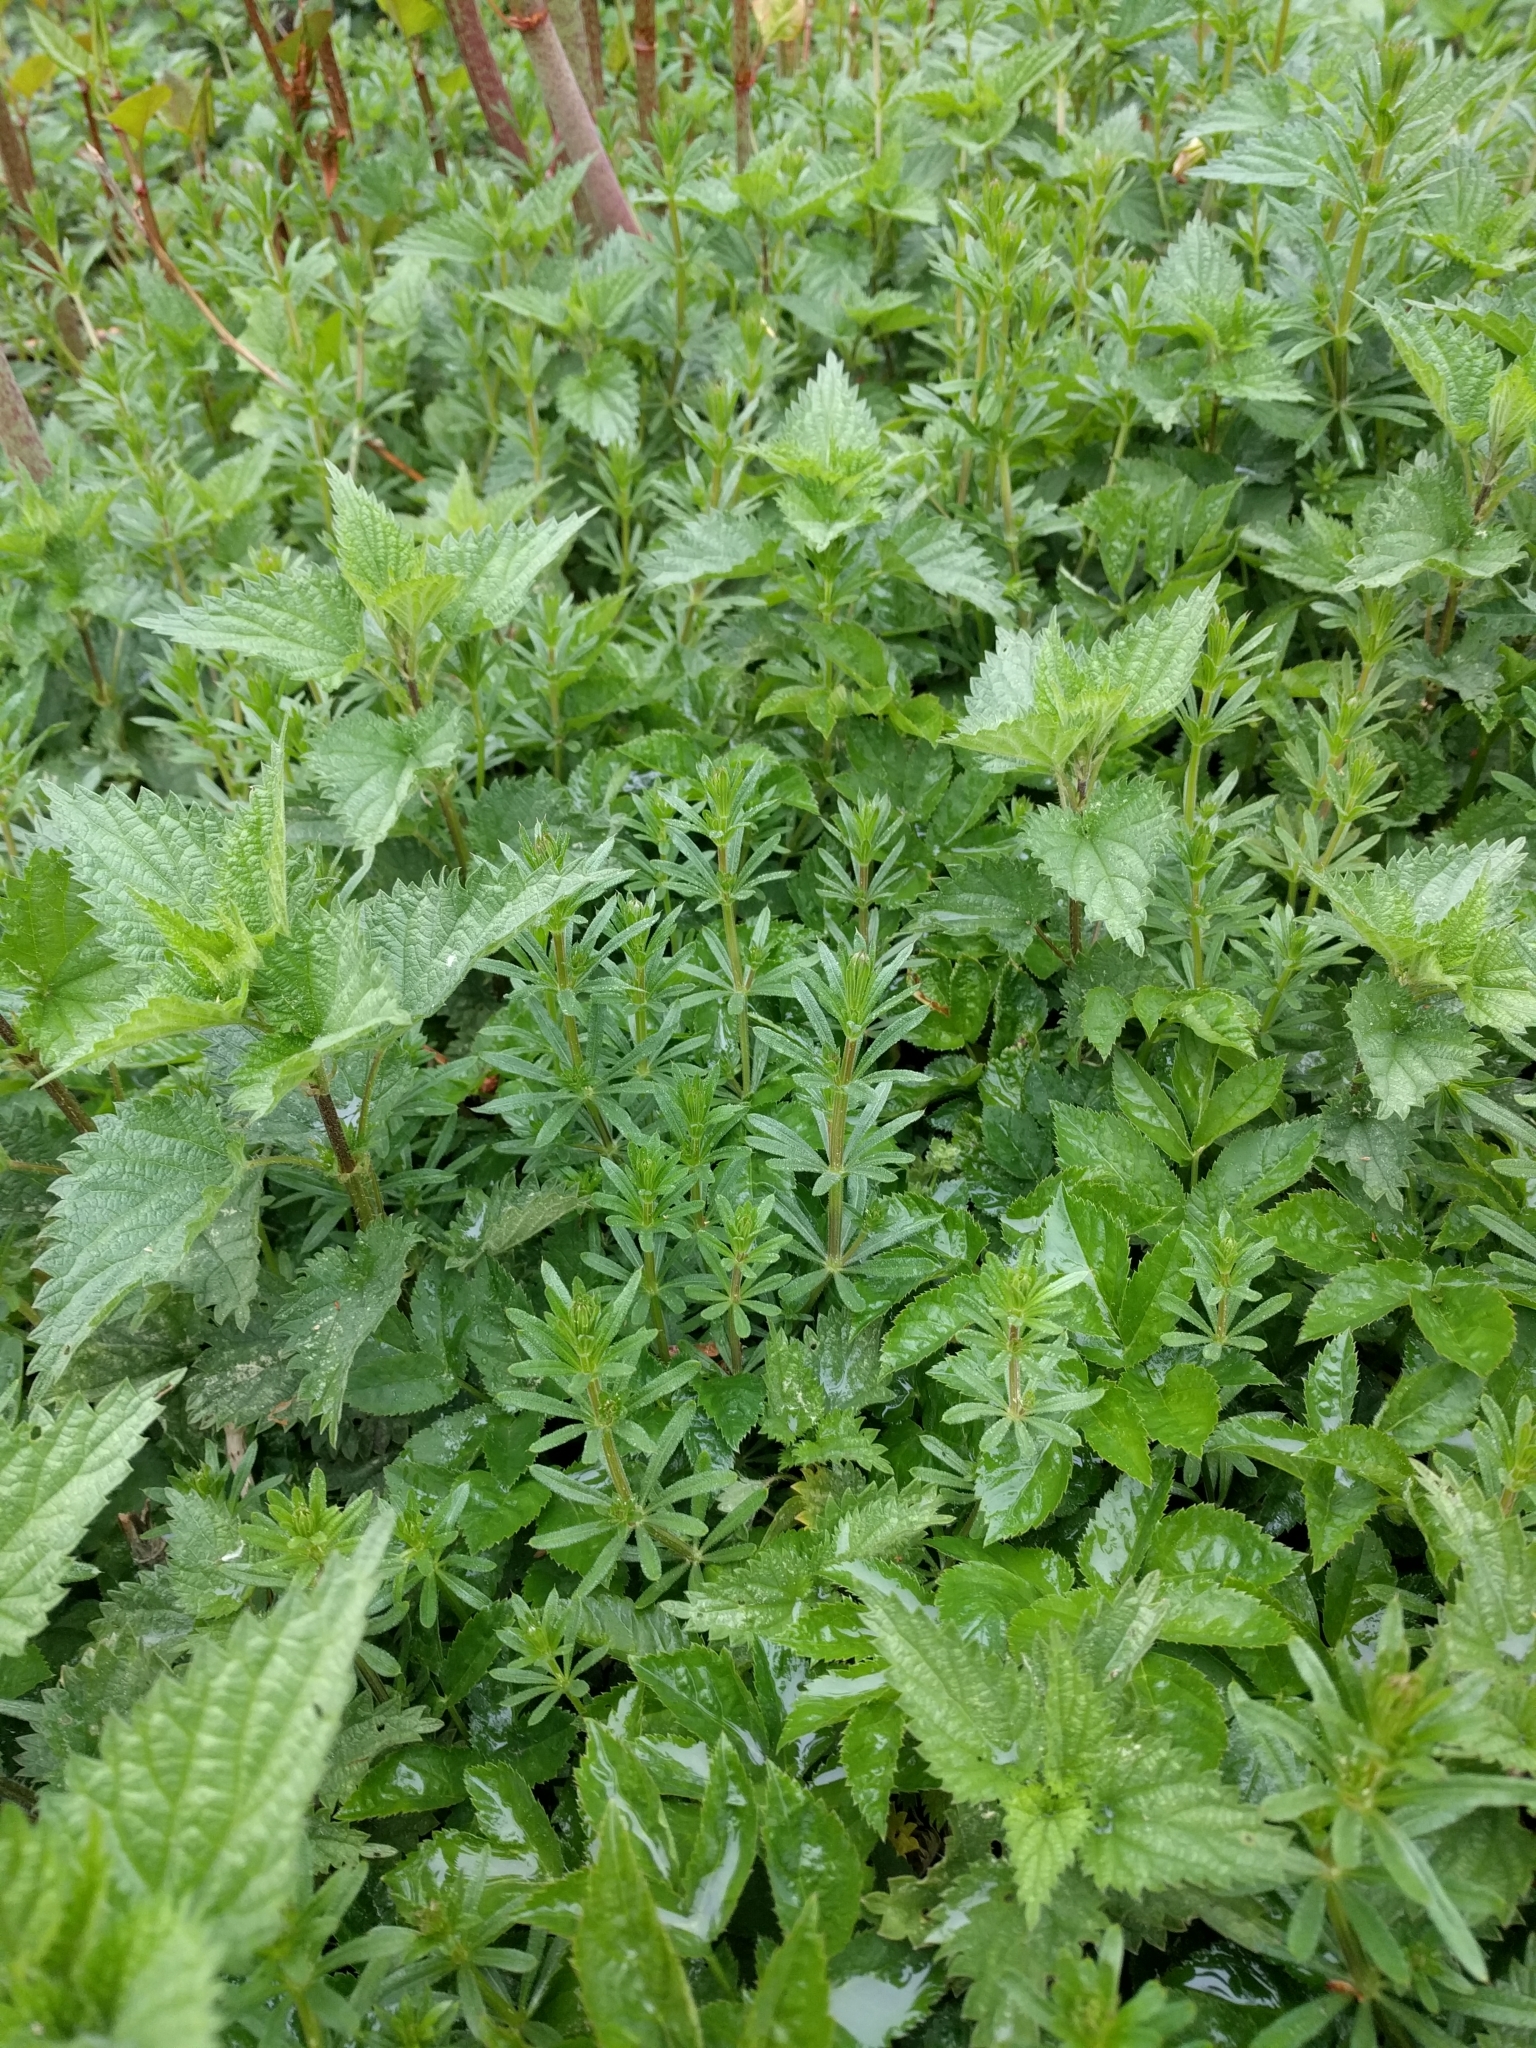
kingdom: Plantae
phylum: Tracheophyta
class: Magnoliopsida
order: Gentianales
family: Rubiaceae
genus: Galium
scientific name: Galium aparine
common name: Cleavers
